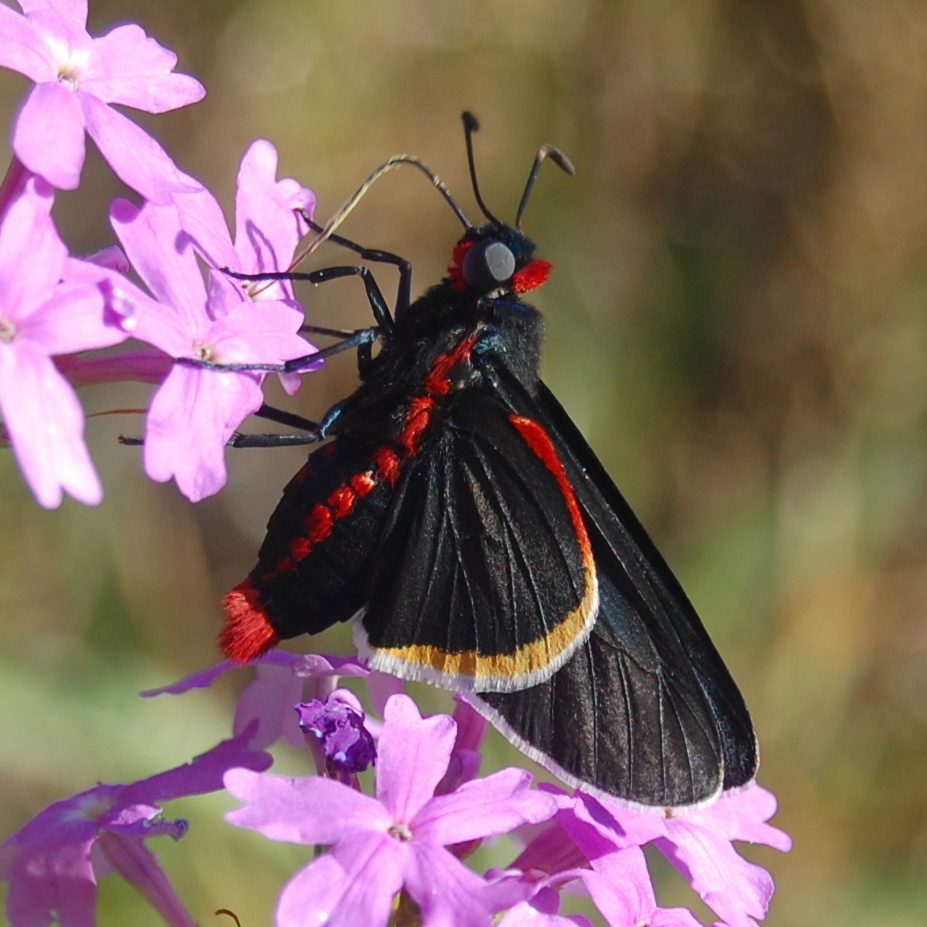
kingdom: Animalia
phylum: Arthropoda
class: Insecta
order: Lepidoptera
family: Hesperiidae
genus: Mysoria
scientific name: Mysoria barcastus
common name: Royal firetip
